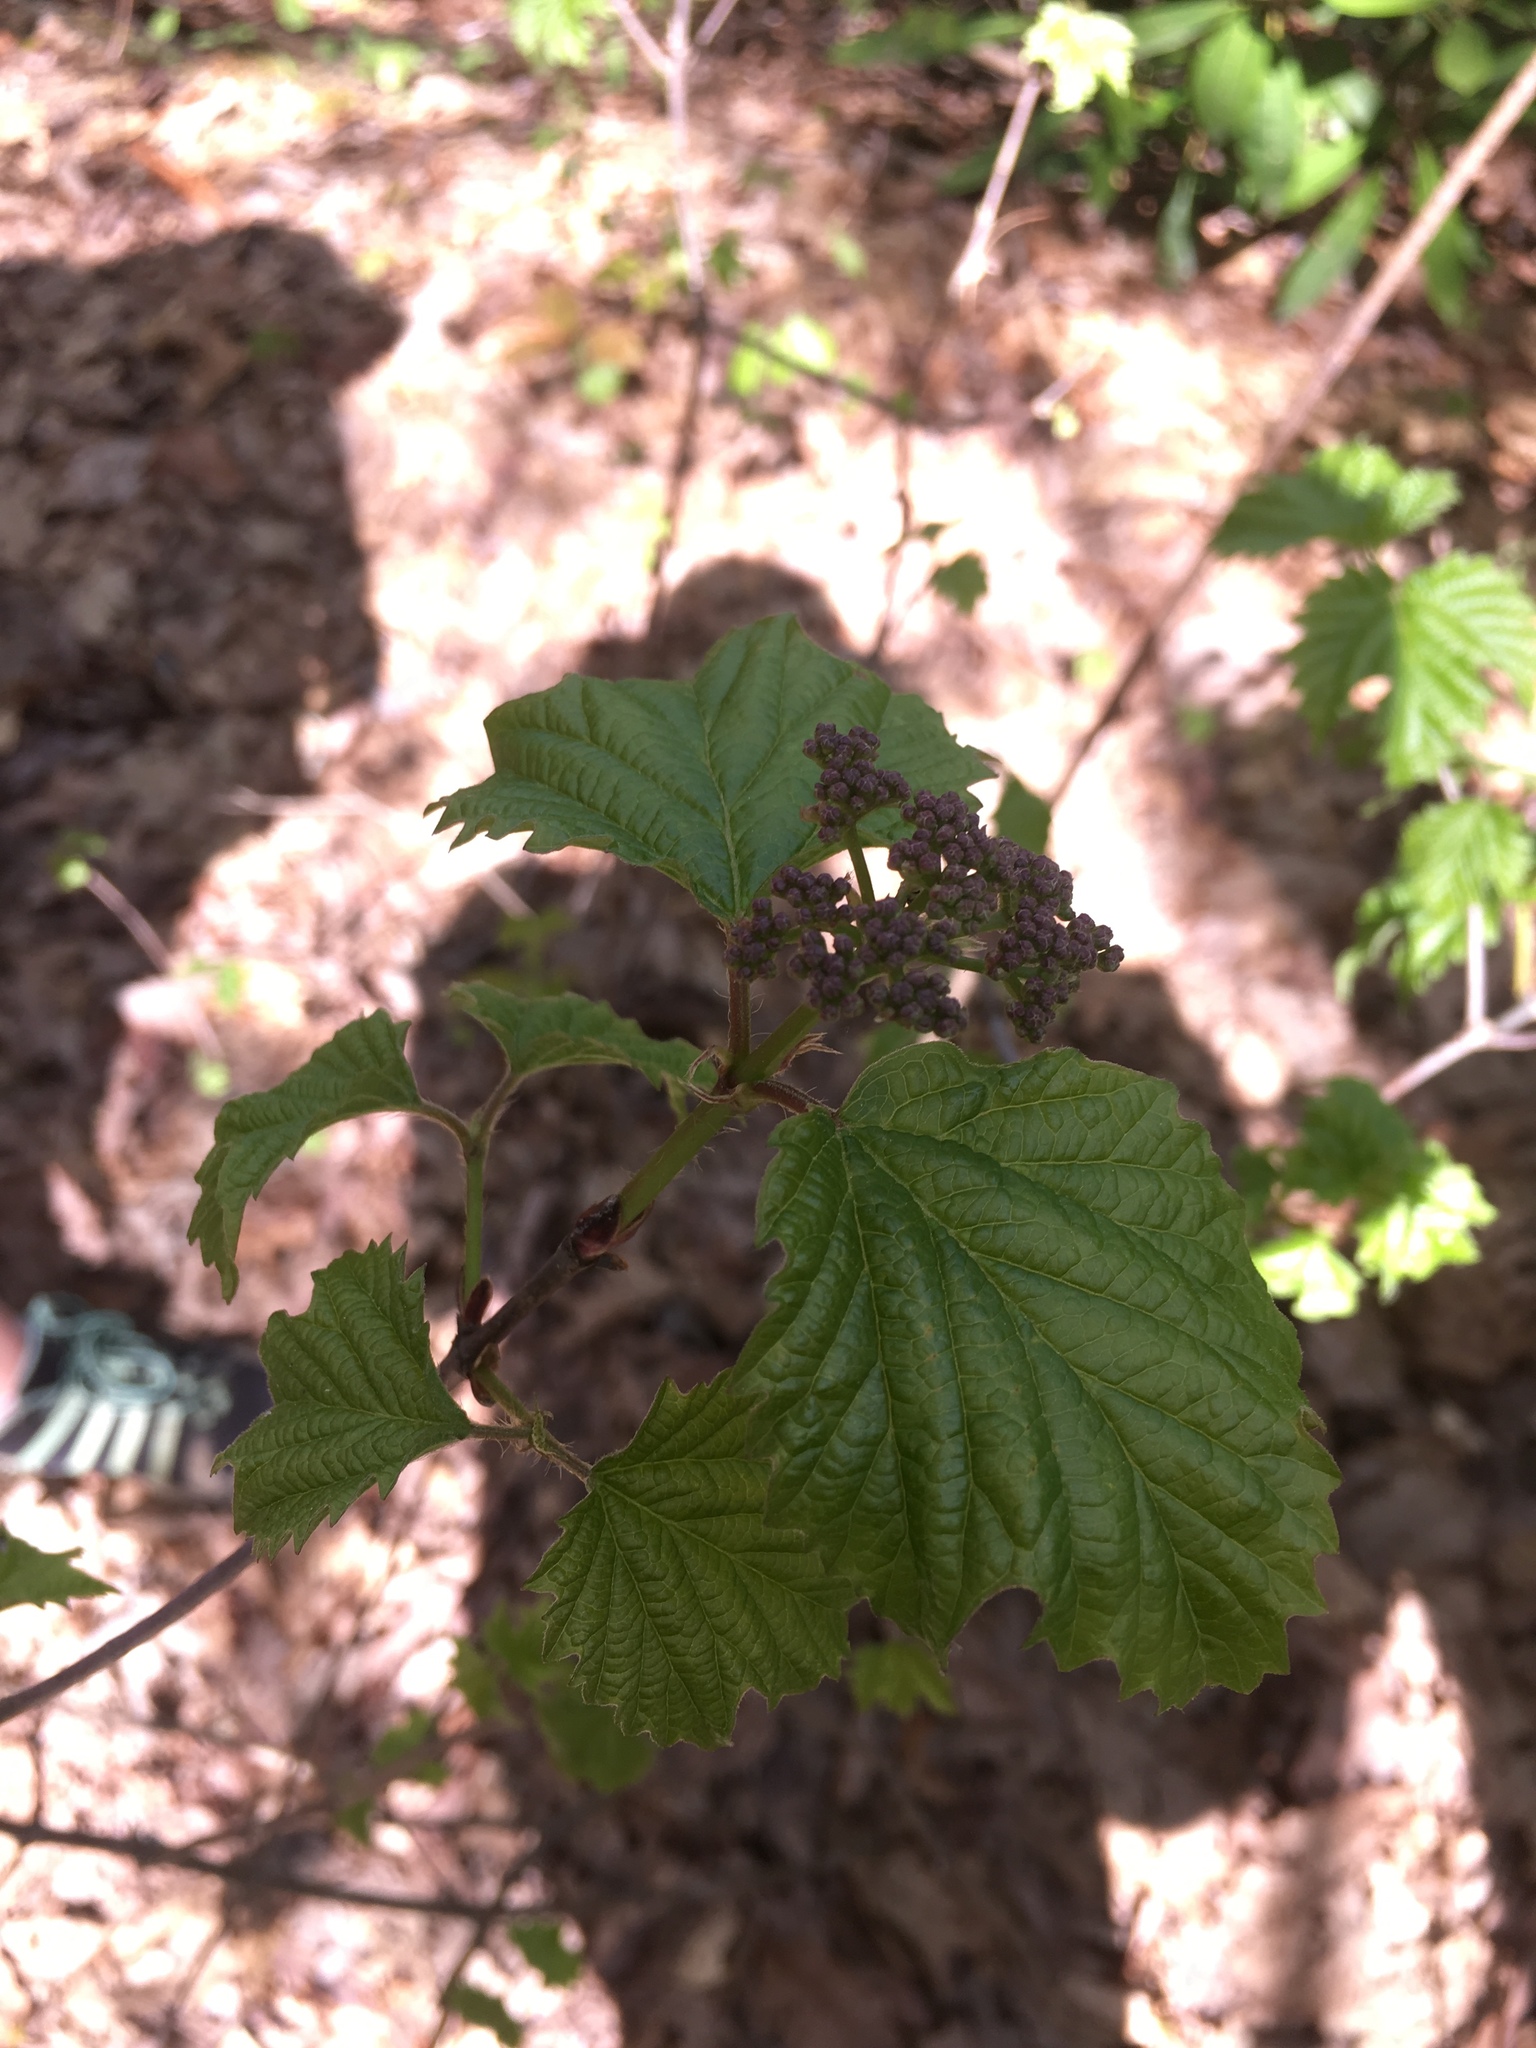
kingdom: Plantae
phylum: Tracheophyta
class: Magnoliopsida
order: Dipsacales
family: Viburnaceae
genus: Viburnum
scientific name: Viburnum acerifolium
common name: Dockmackie
